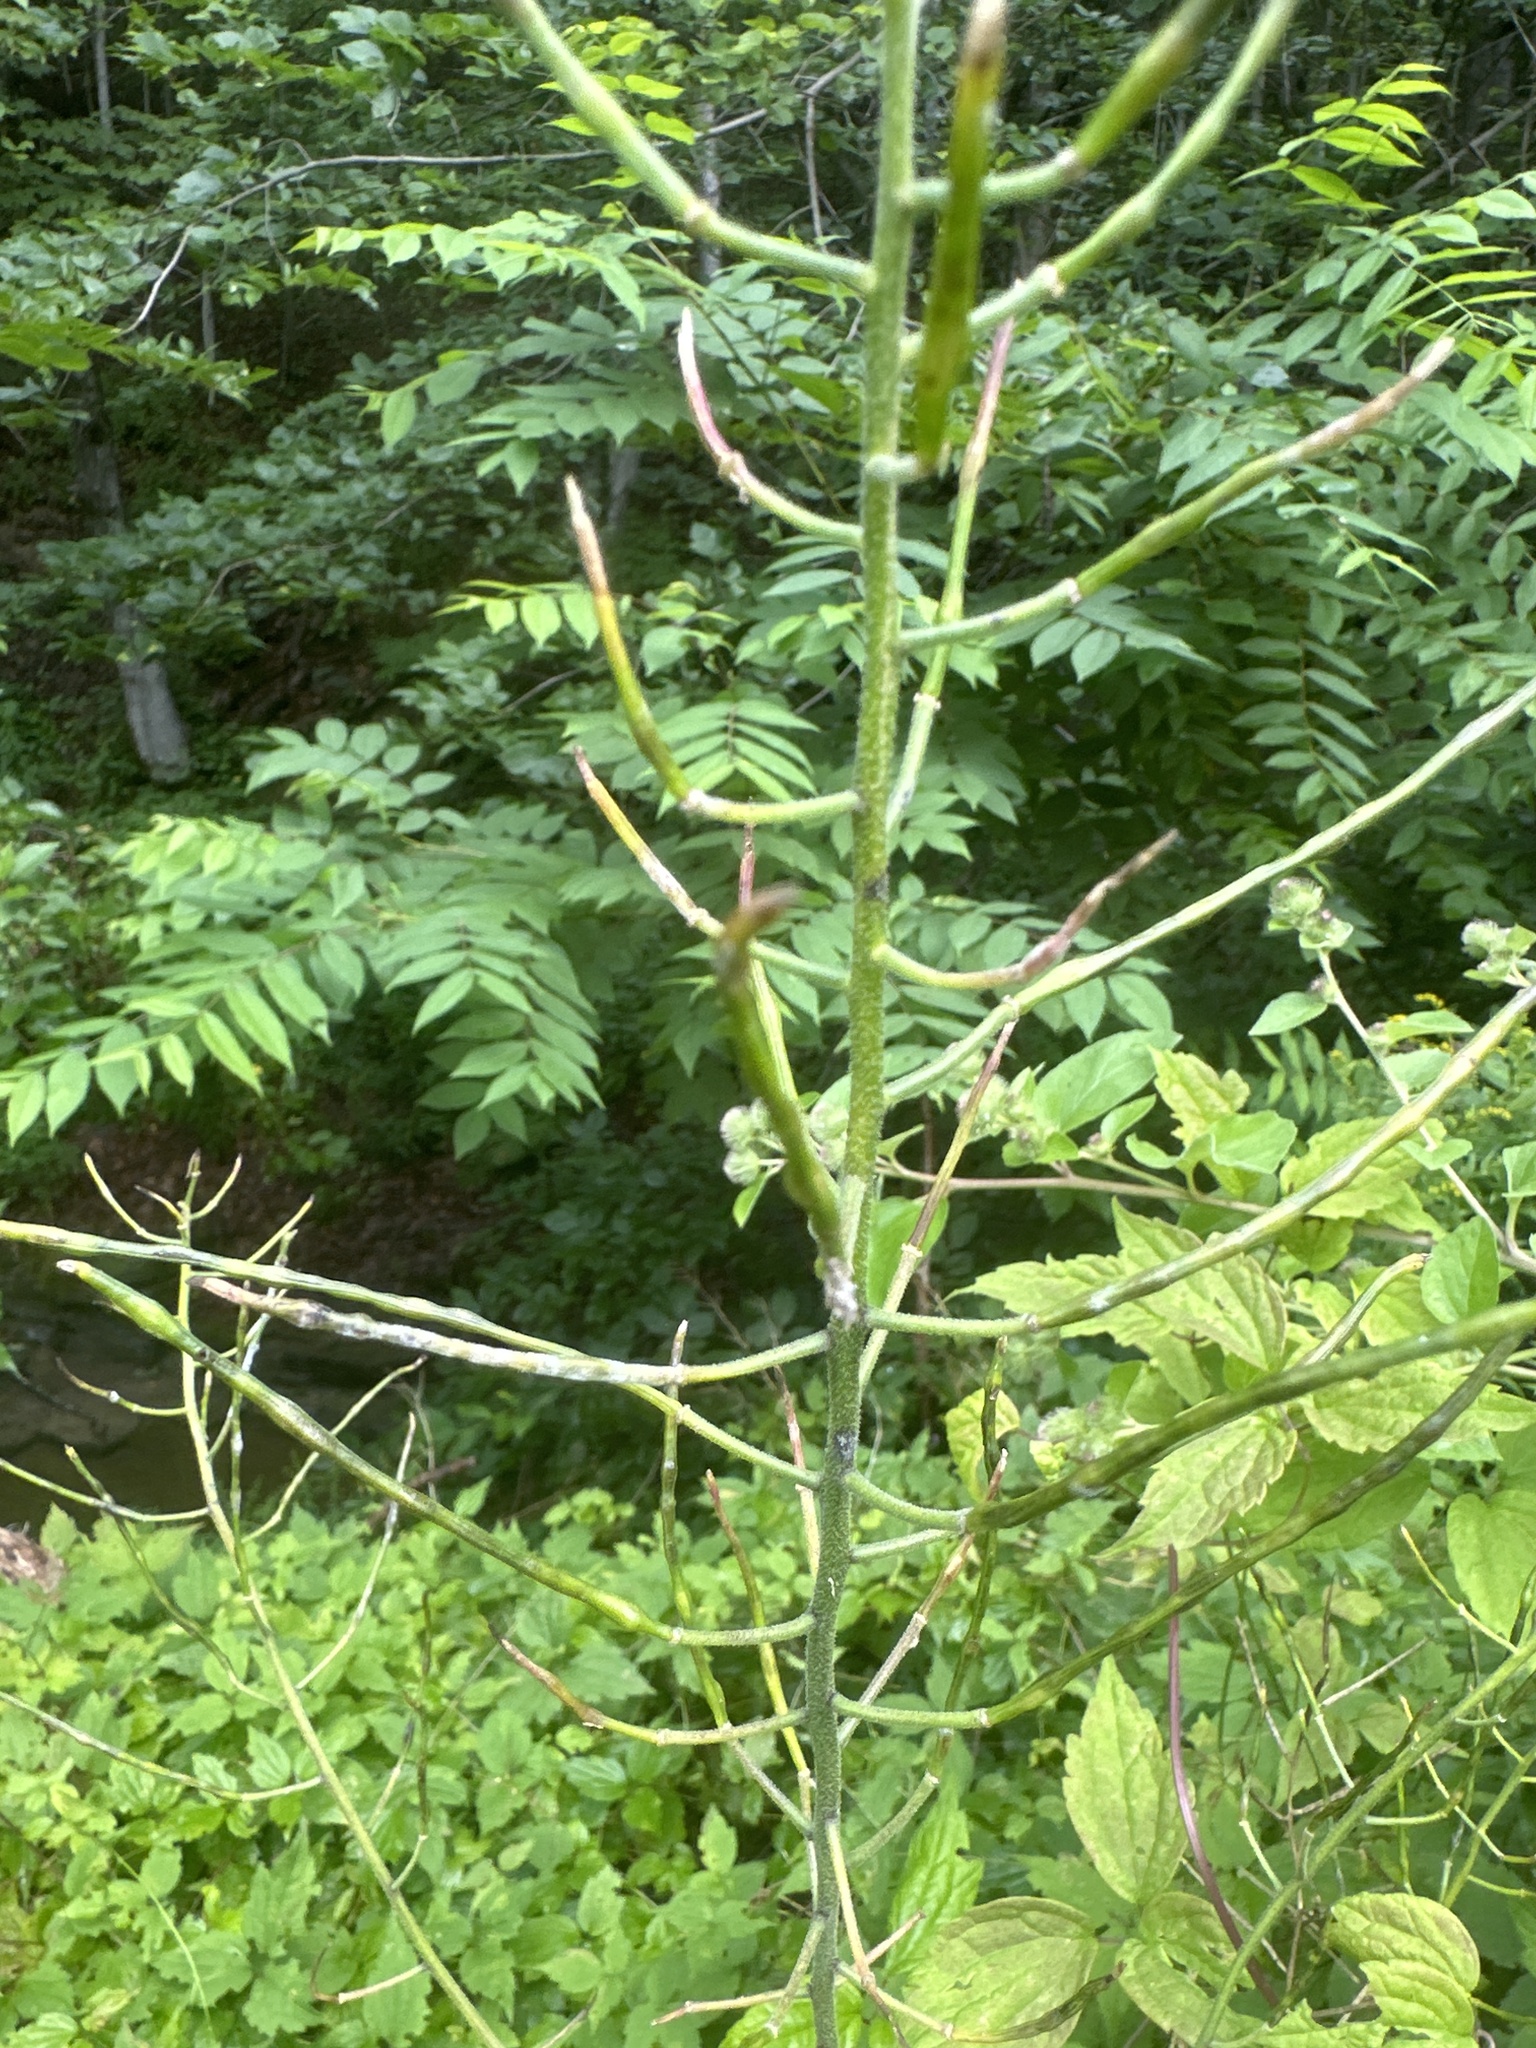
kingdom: Plantae
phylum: Tracheophyta
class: Magnoliopsida
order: Brassicales
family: Brassicaceae
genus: Hesperis
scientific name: Hesperis matronalis
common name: Dame's-violet
